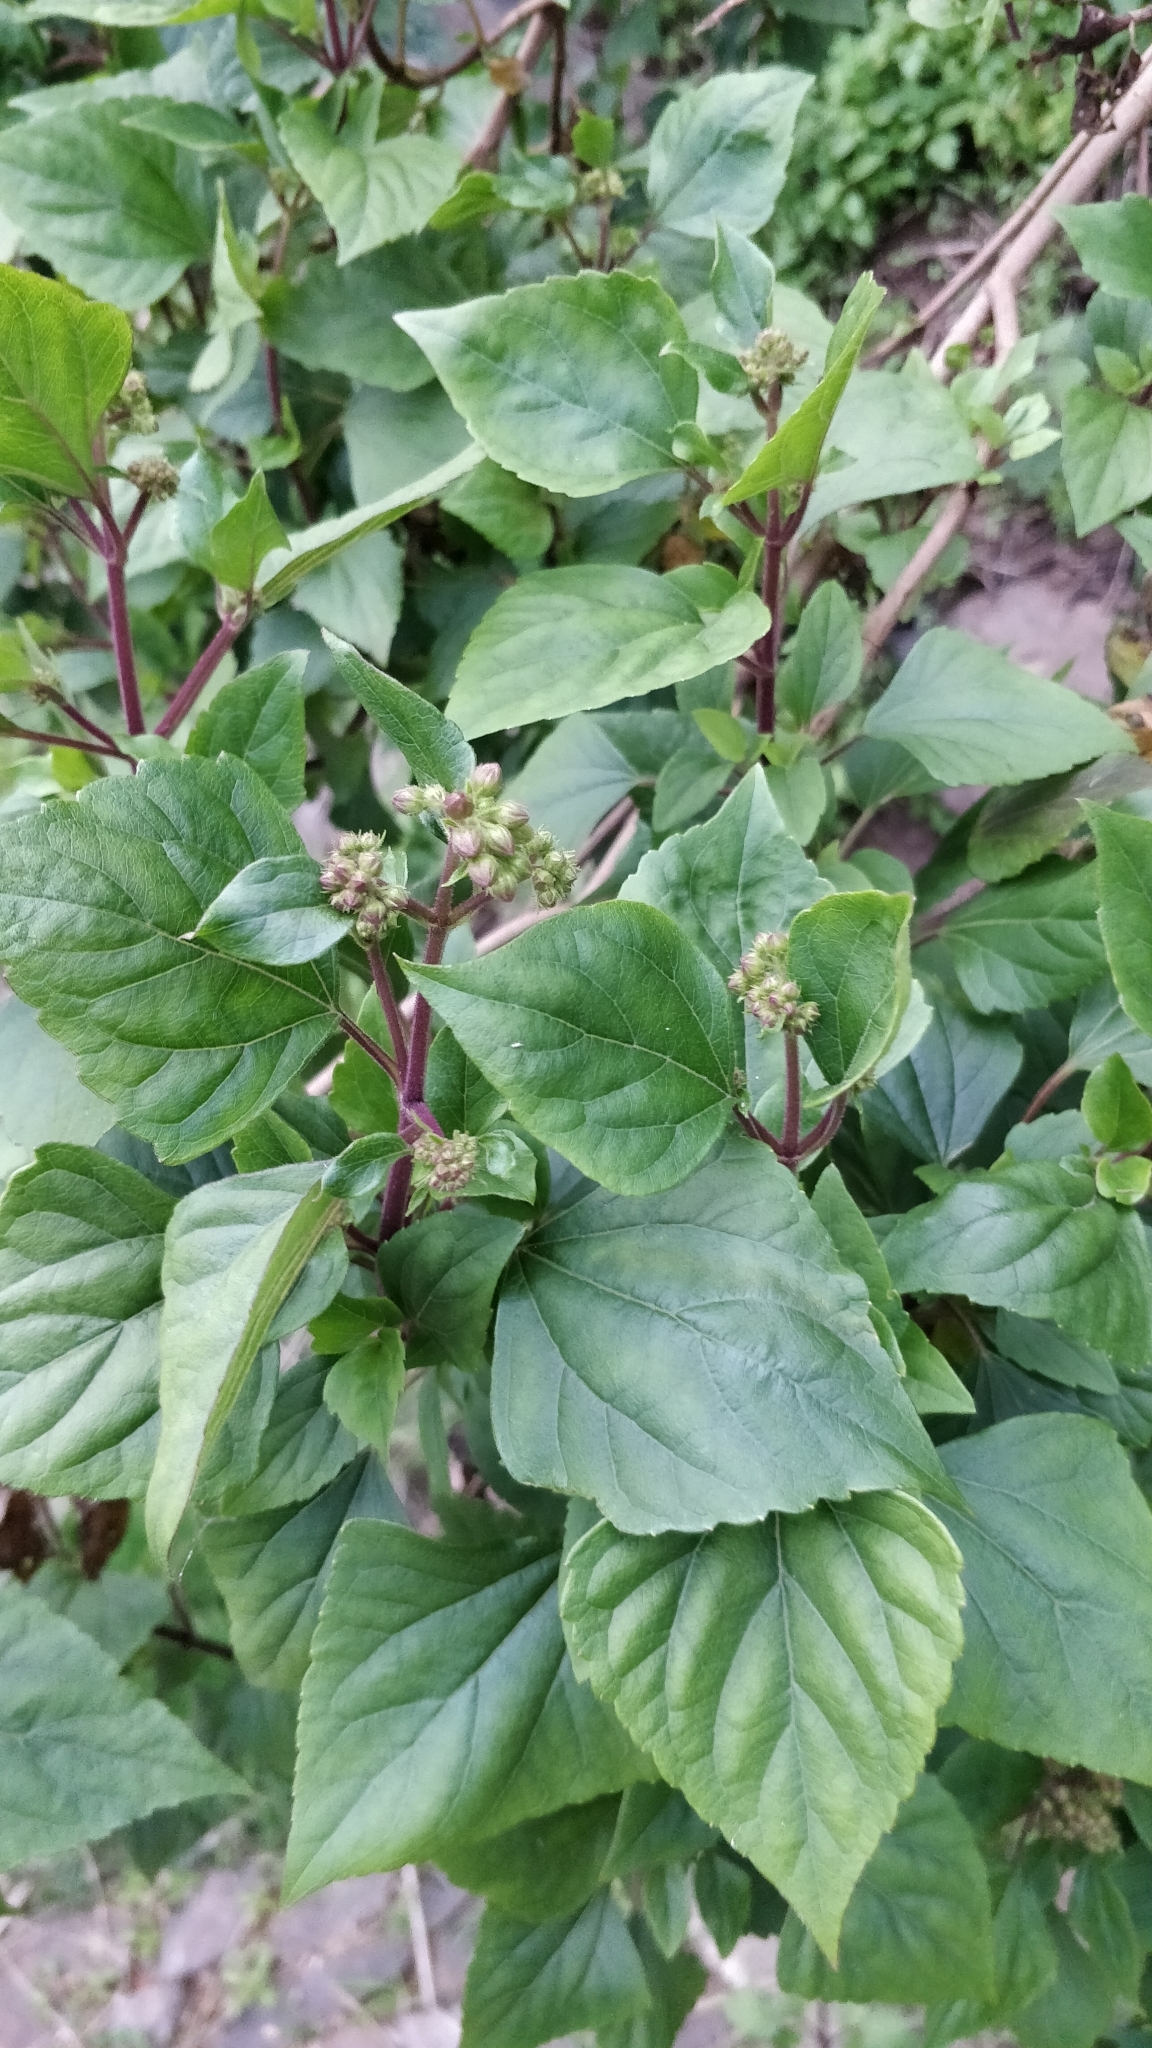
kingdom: Plantae
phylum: Tracheophyta
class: Magnoliopsida
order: Asterales
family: Asteraceae
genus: Ageratina
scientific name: Ageratina adenophora
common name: Sticky snakeroot
